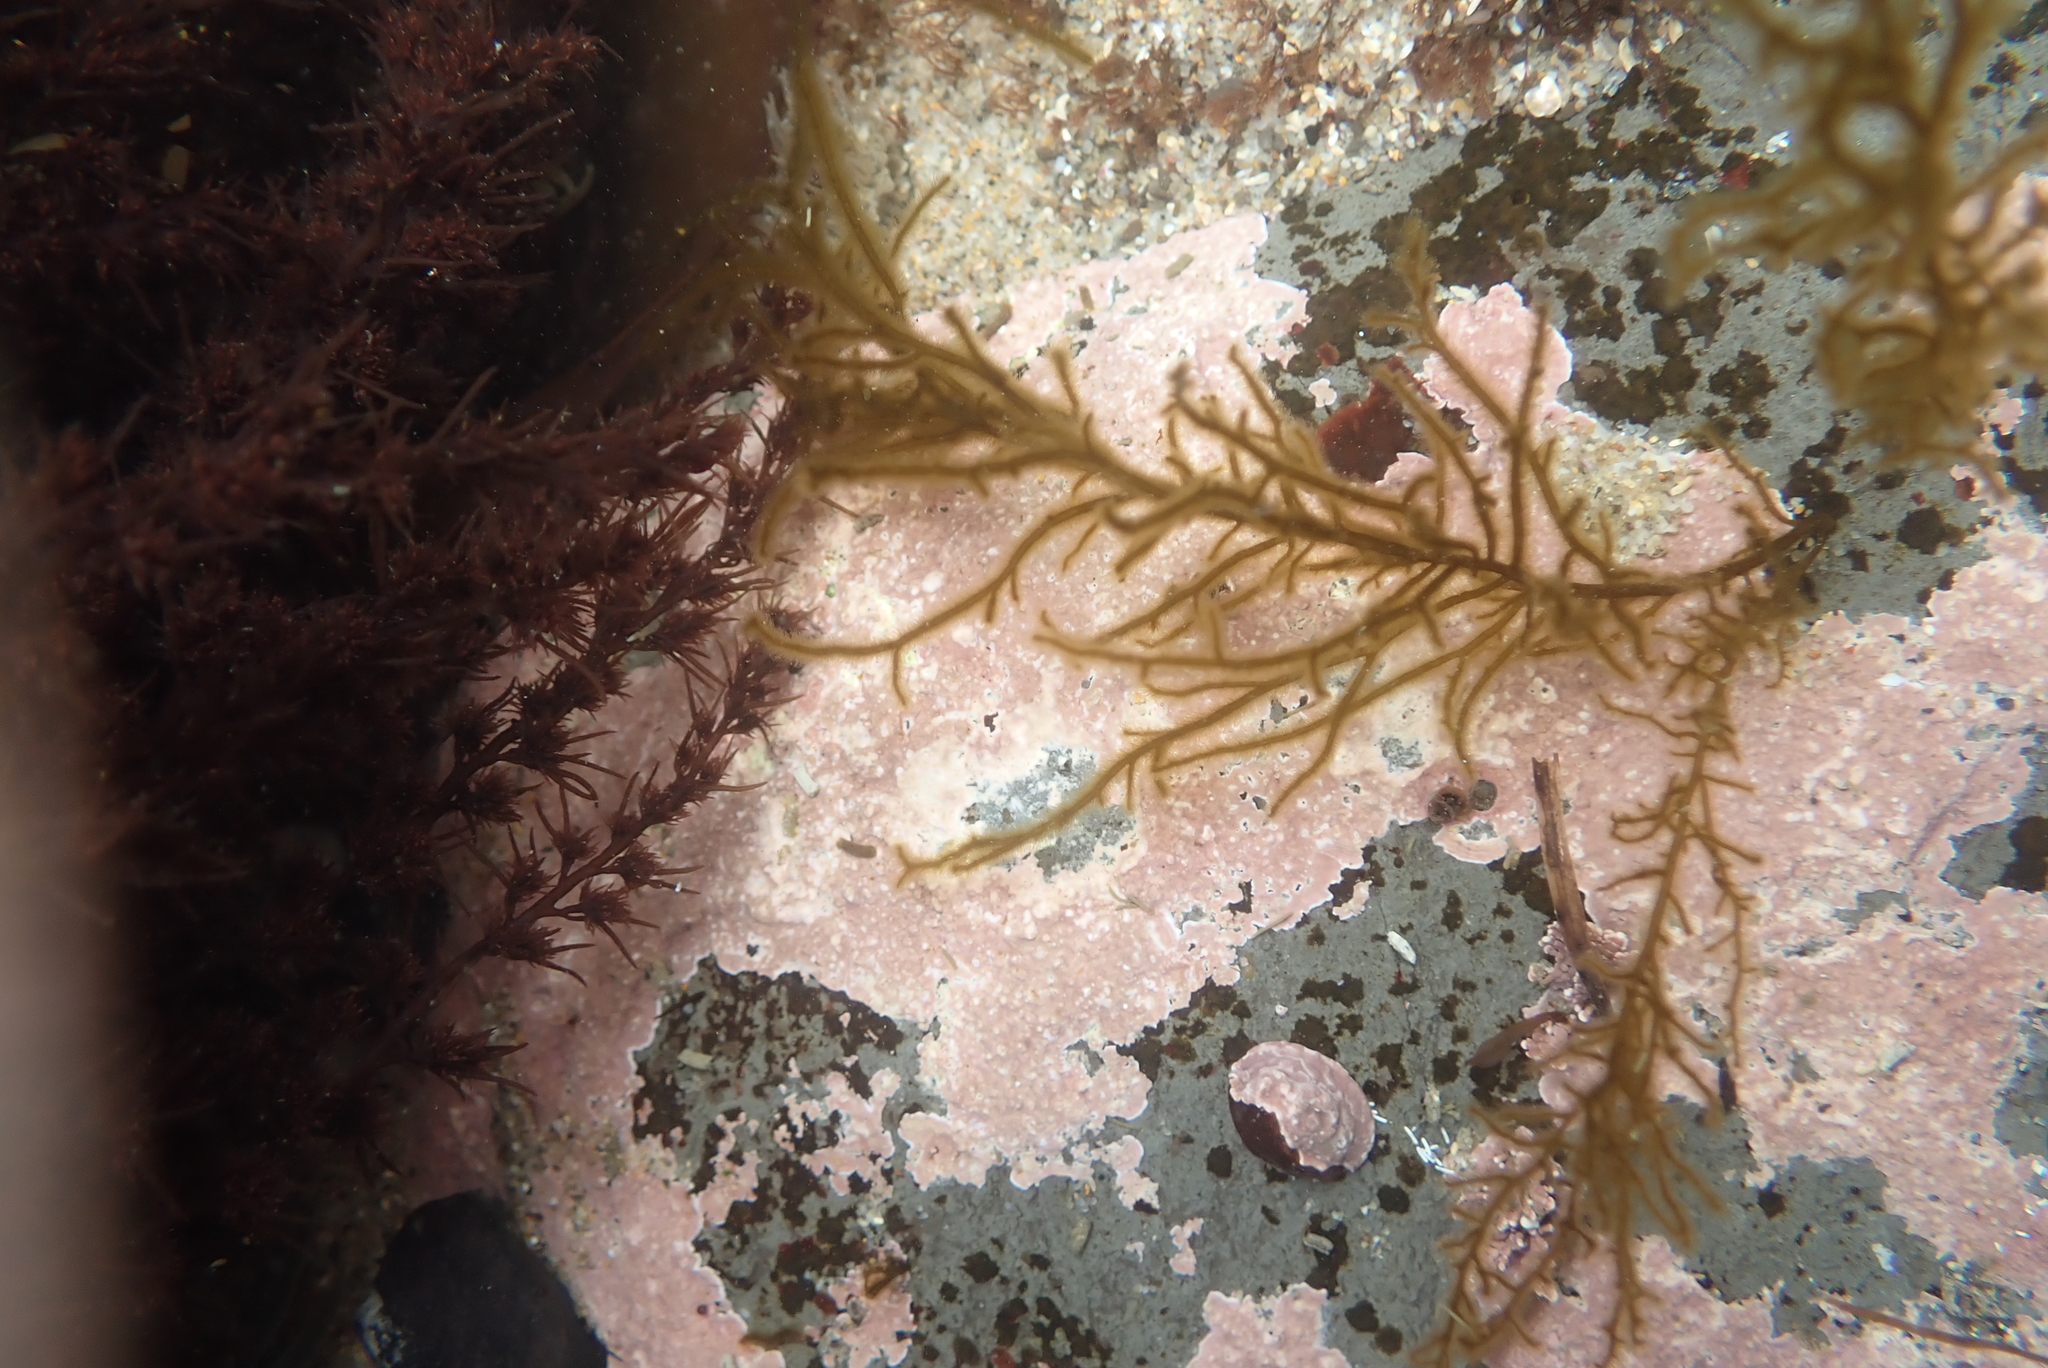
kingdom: Chromista
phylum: Ochrophyta
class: Phaeophyceae
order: Ectocarpales
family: Chordariaceae
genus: Haplogloia
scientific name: Haplogloia andersonii
